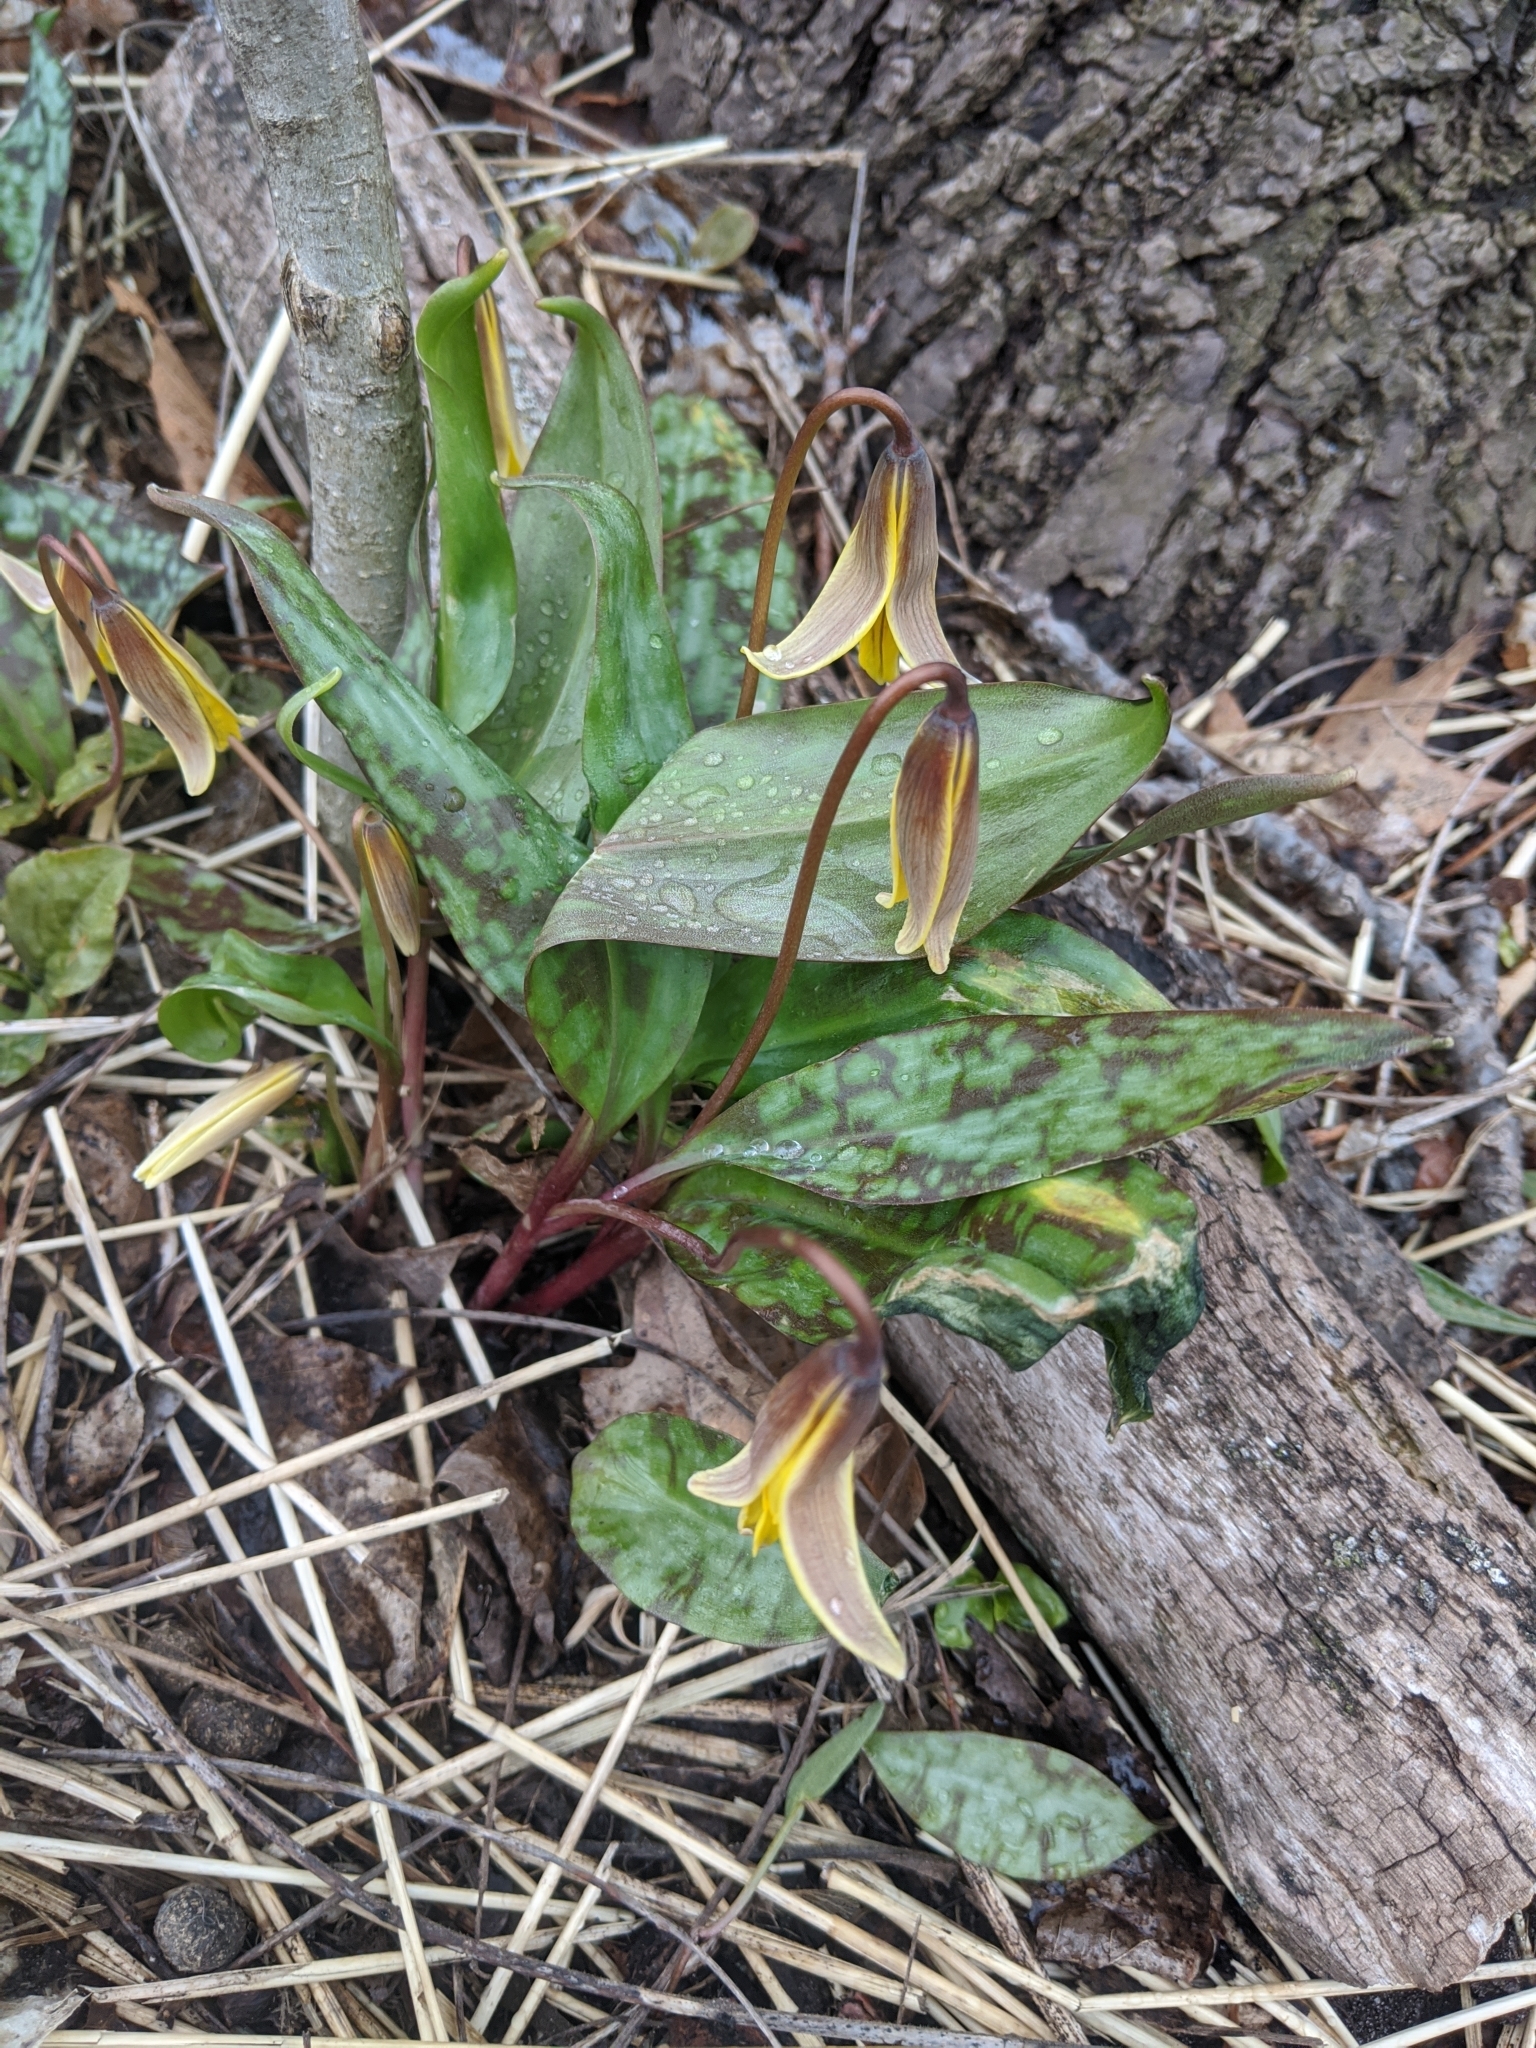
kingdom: Plantae
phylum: Tracheophyta
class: Liliopsida
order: Liliales
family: Liliaceae
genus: Erythronium
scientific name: Erythronium americanum
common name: Yellow adder's-tongue
